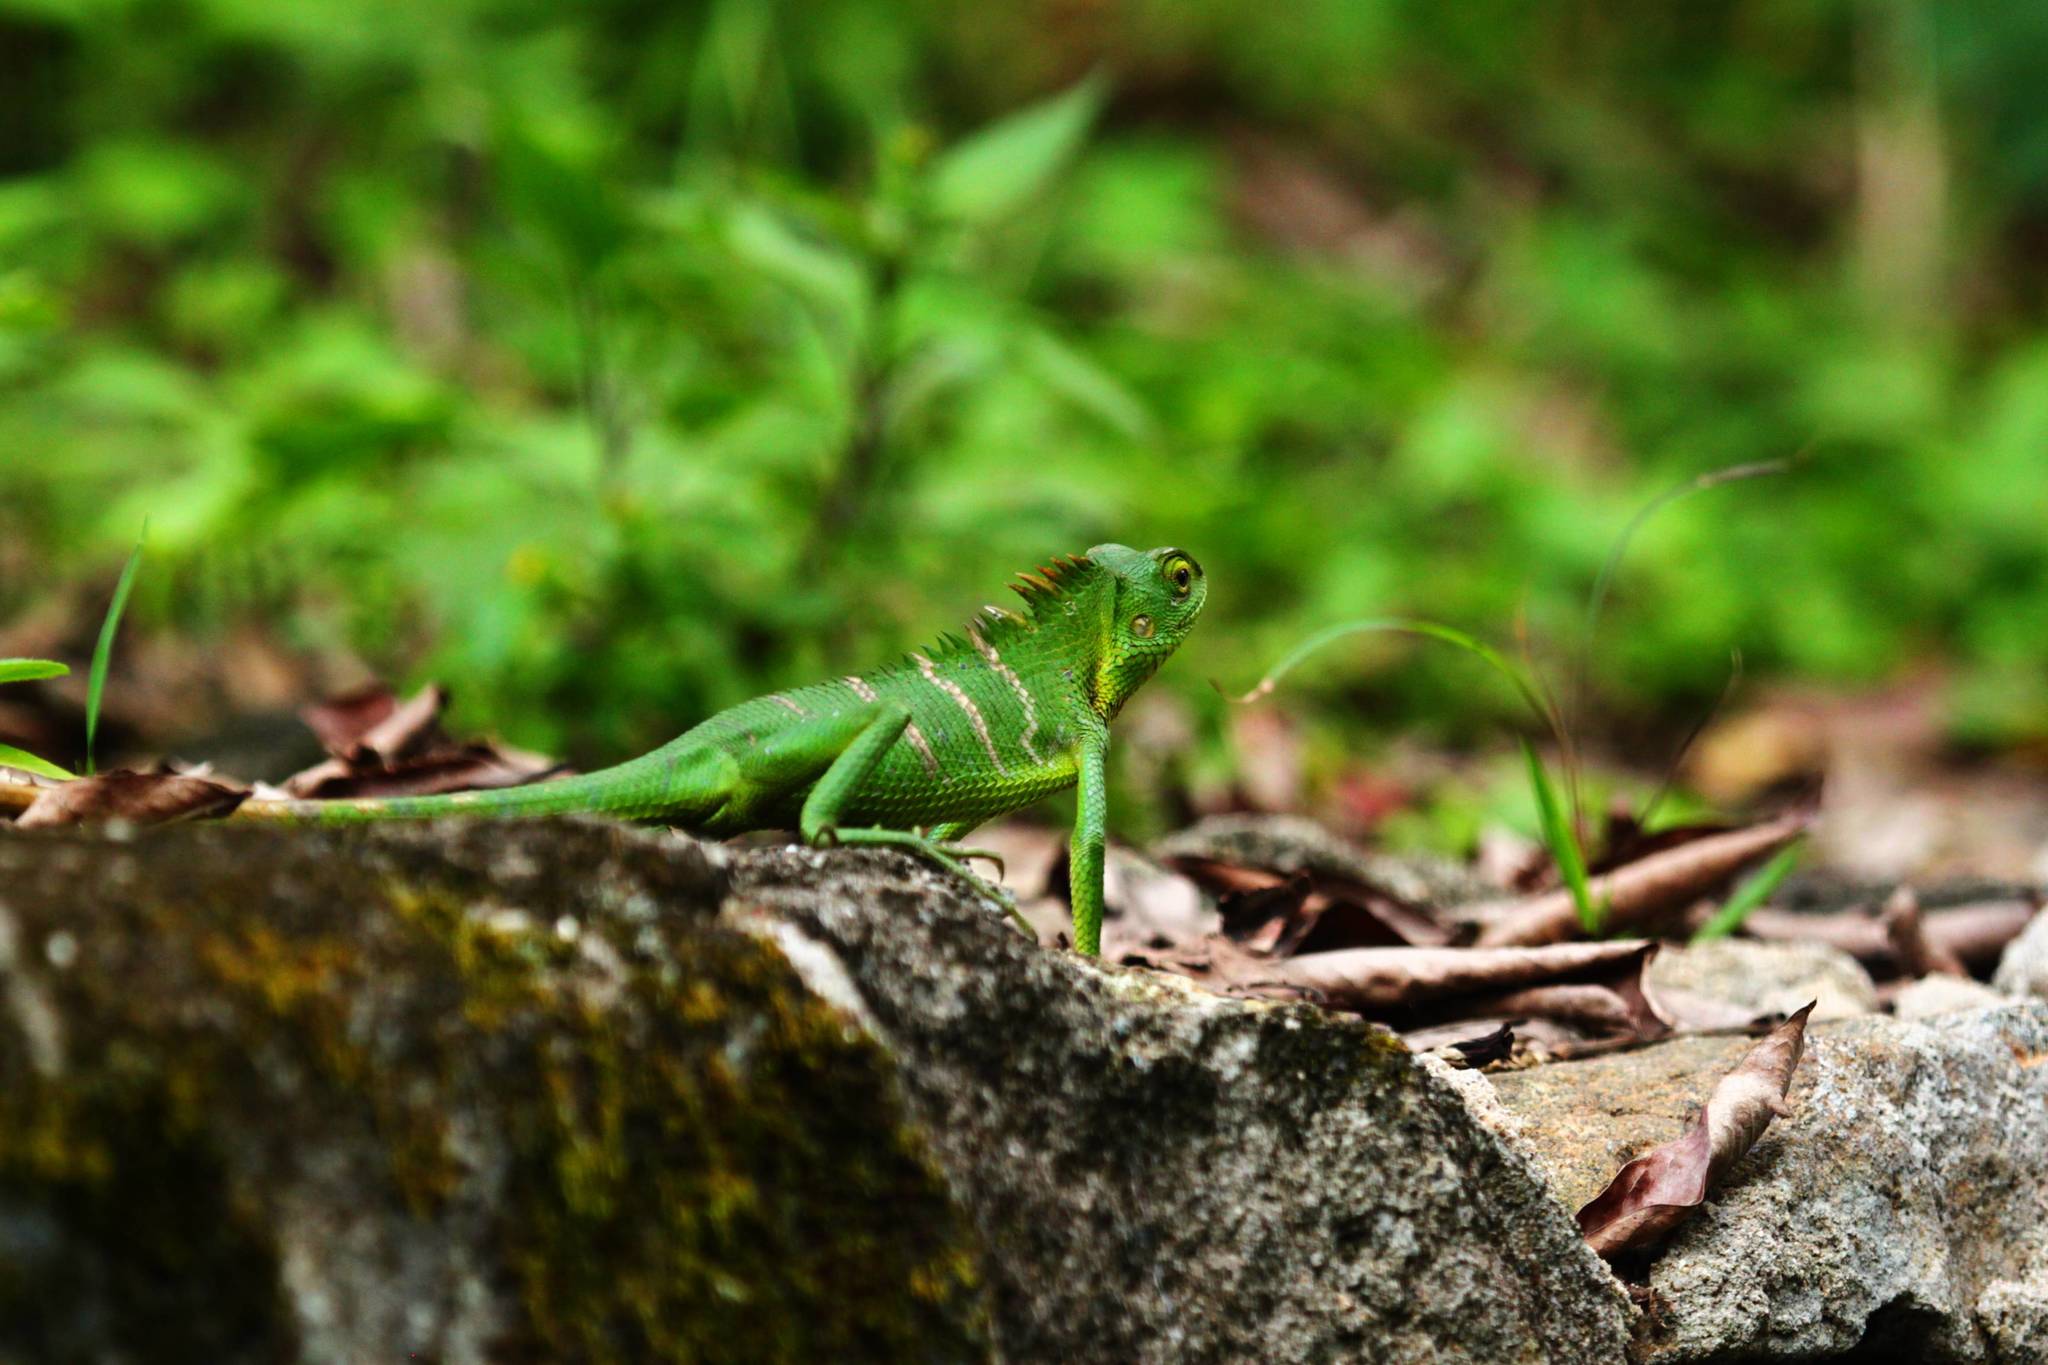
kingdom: Animalia
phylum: Chordata
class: Squamata
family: Agamidae
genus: Calotes
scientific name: Calotes calotes
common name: Common green forest lizard
